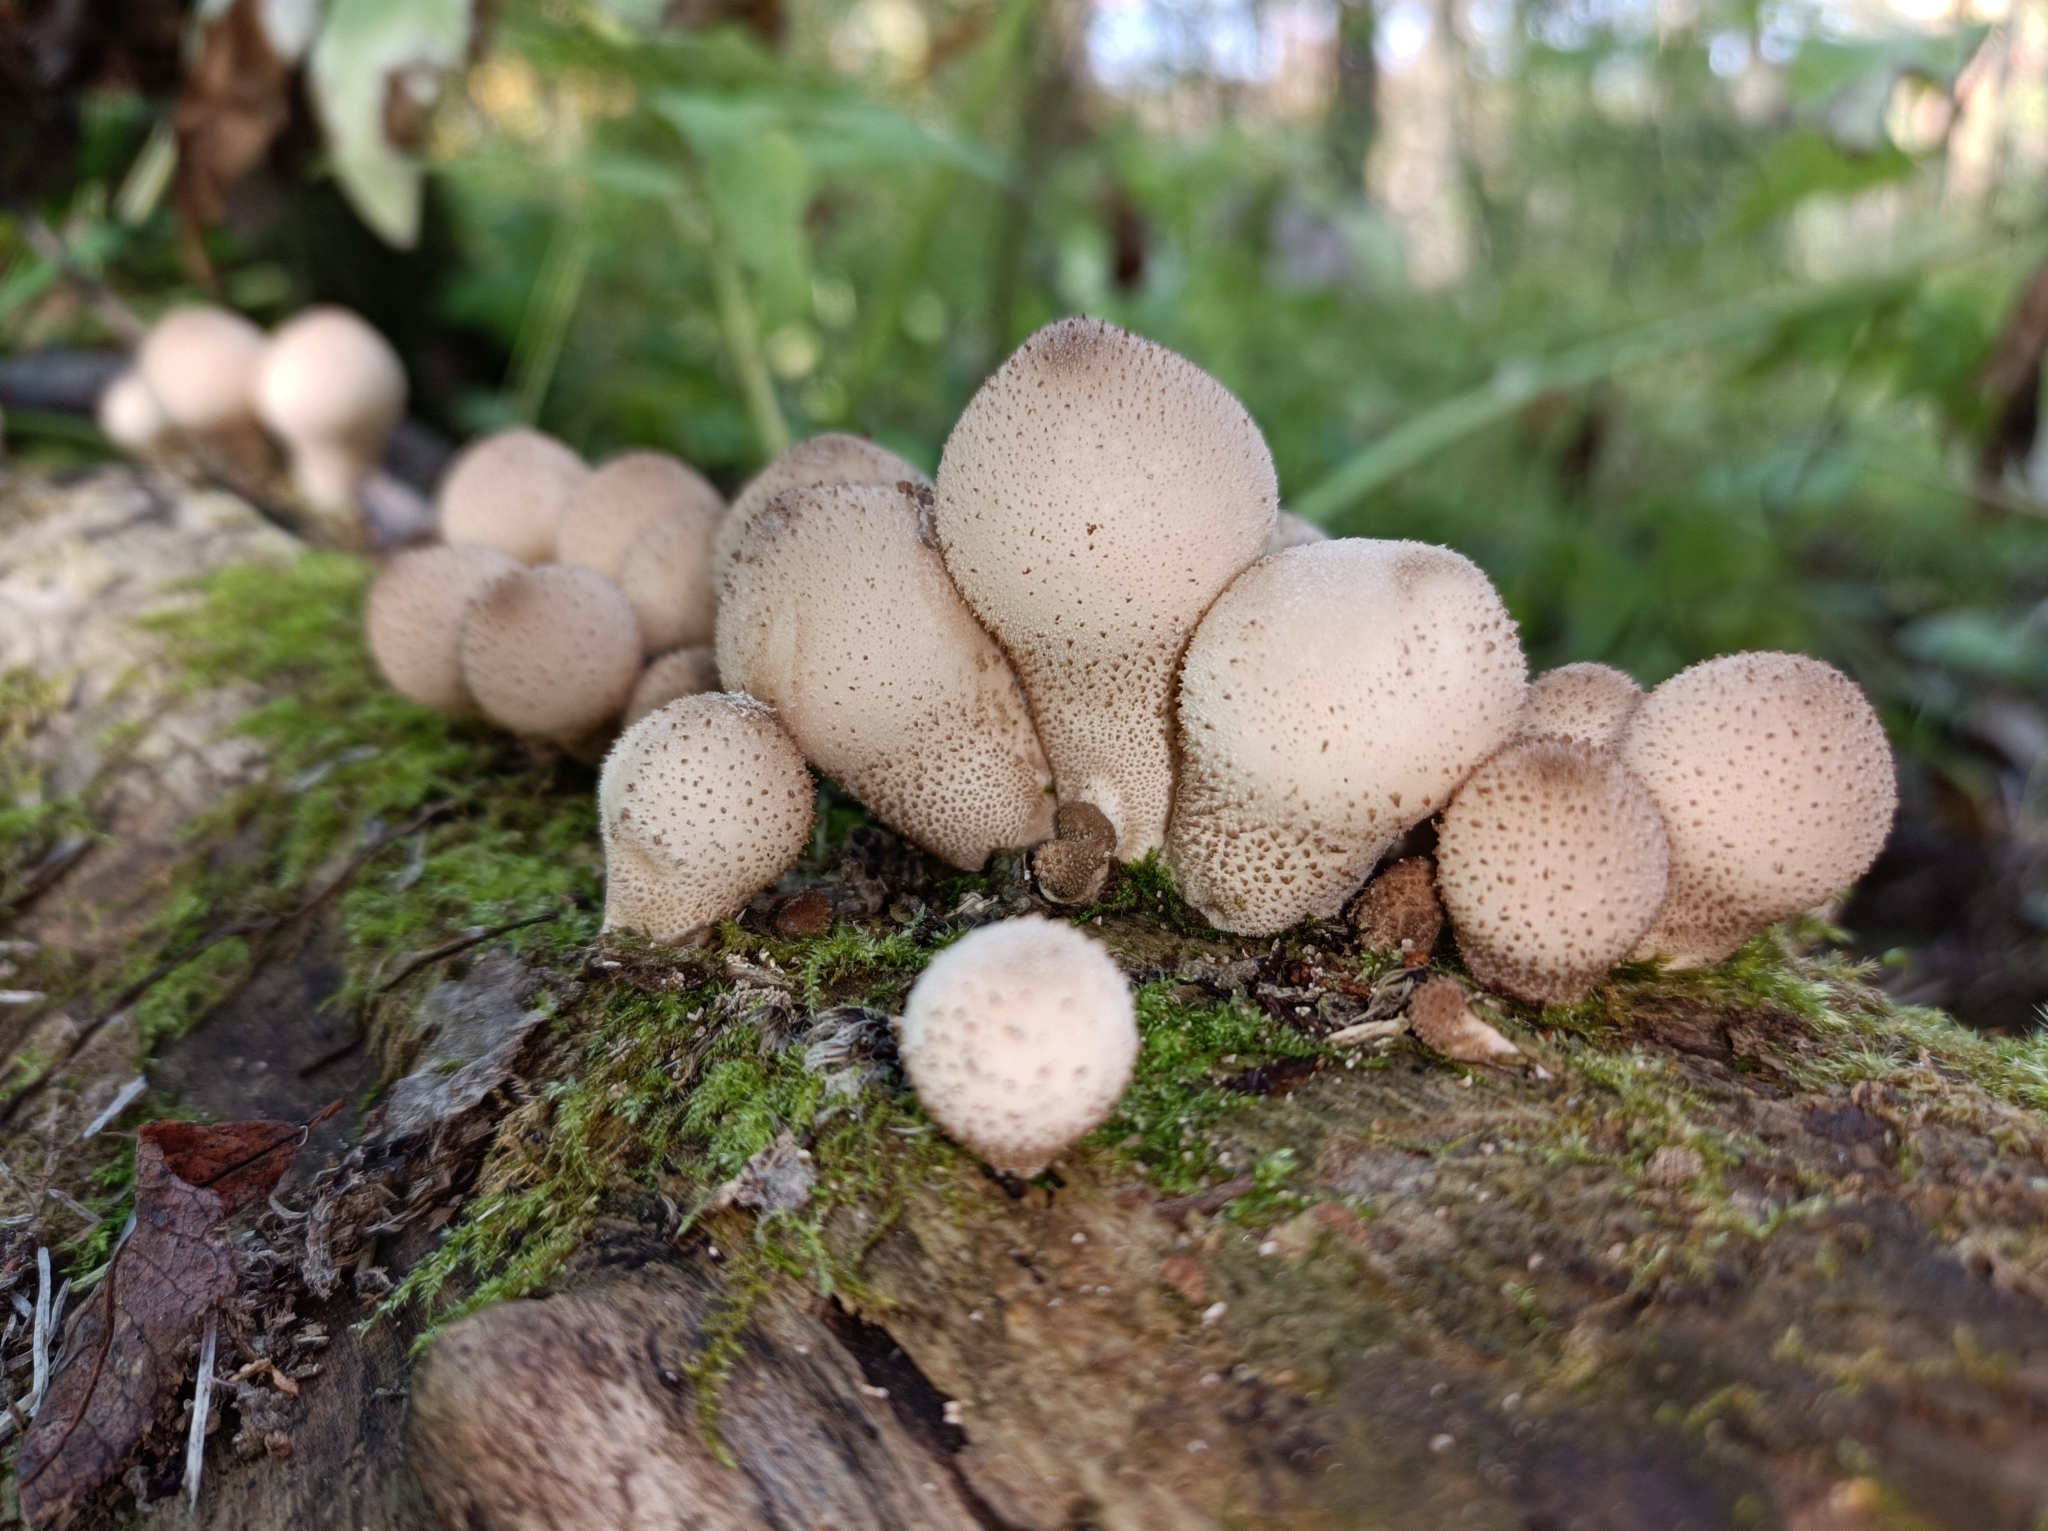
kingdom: Fungi
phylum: Basidiomycota
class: Agaricomycetes
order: Agaricales
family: Lycoperdaceae
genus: Apioperdon
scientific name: Apioperdon pyriforme
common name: Pear-shaped puffball
